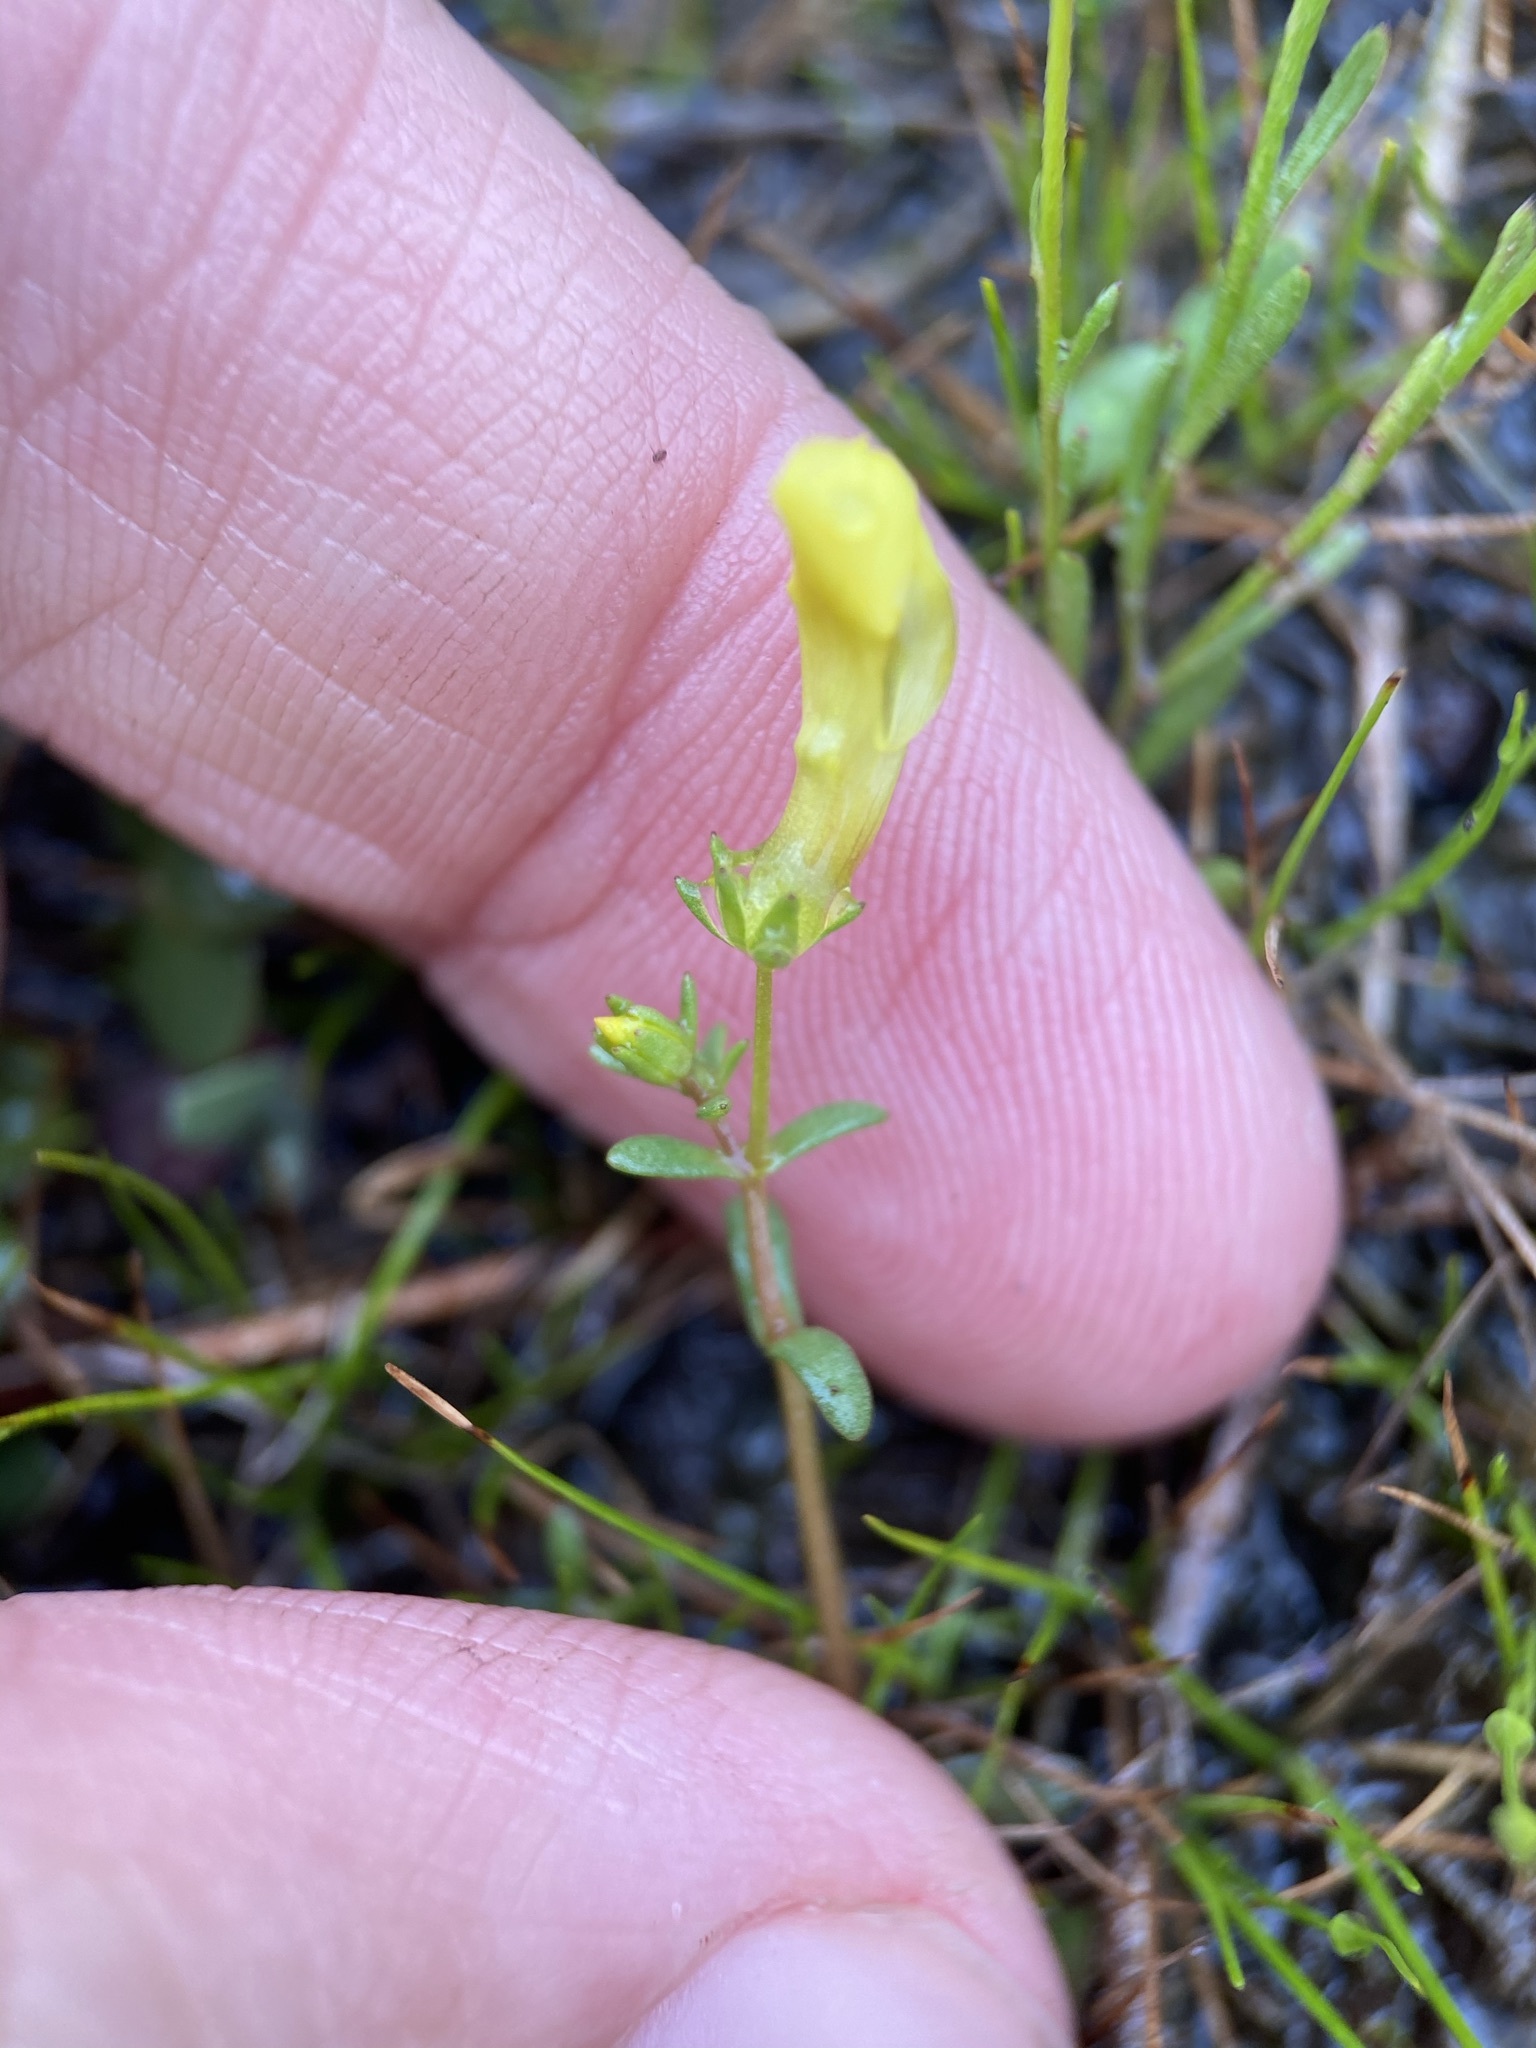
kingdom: Plantae
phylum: Tracheophyta
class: Magnoliopsida
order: Lamiales
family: Plantaginaceae
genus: Gratiola
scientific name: Gratiola flava
